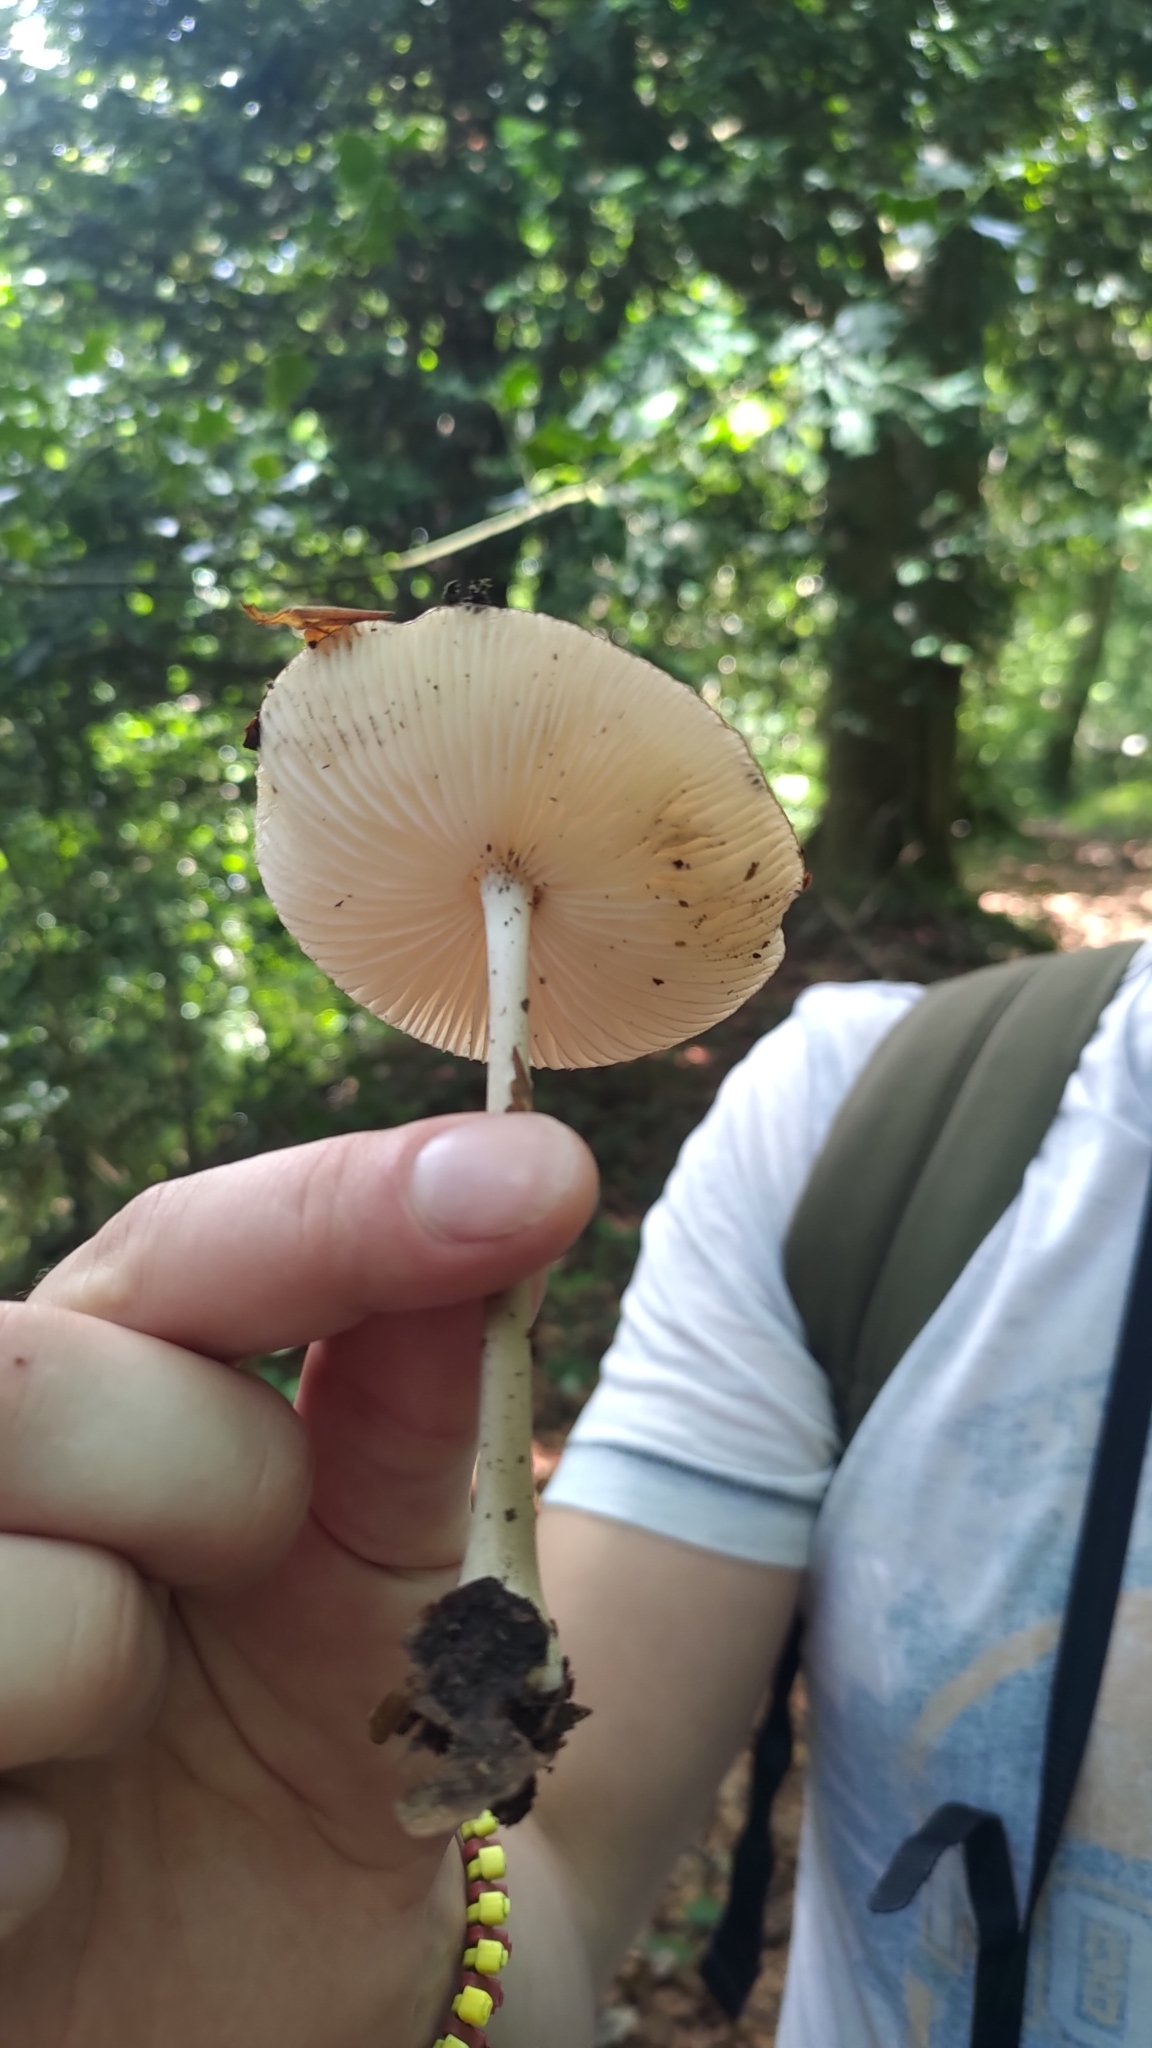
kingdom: Fungi
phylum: Basidiomycota
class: Agaricomycetes
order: Agaricales
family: Physalacriaceae
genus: Hymenopellis
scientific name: Hymenopellis radicata
